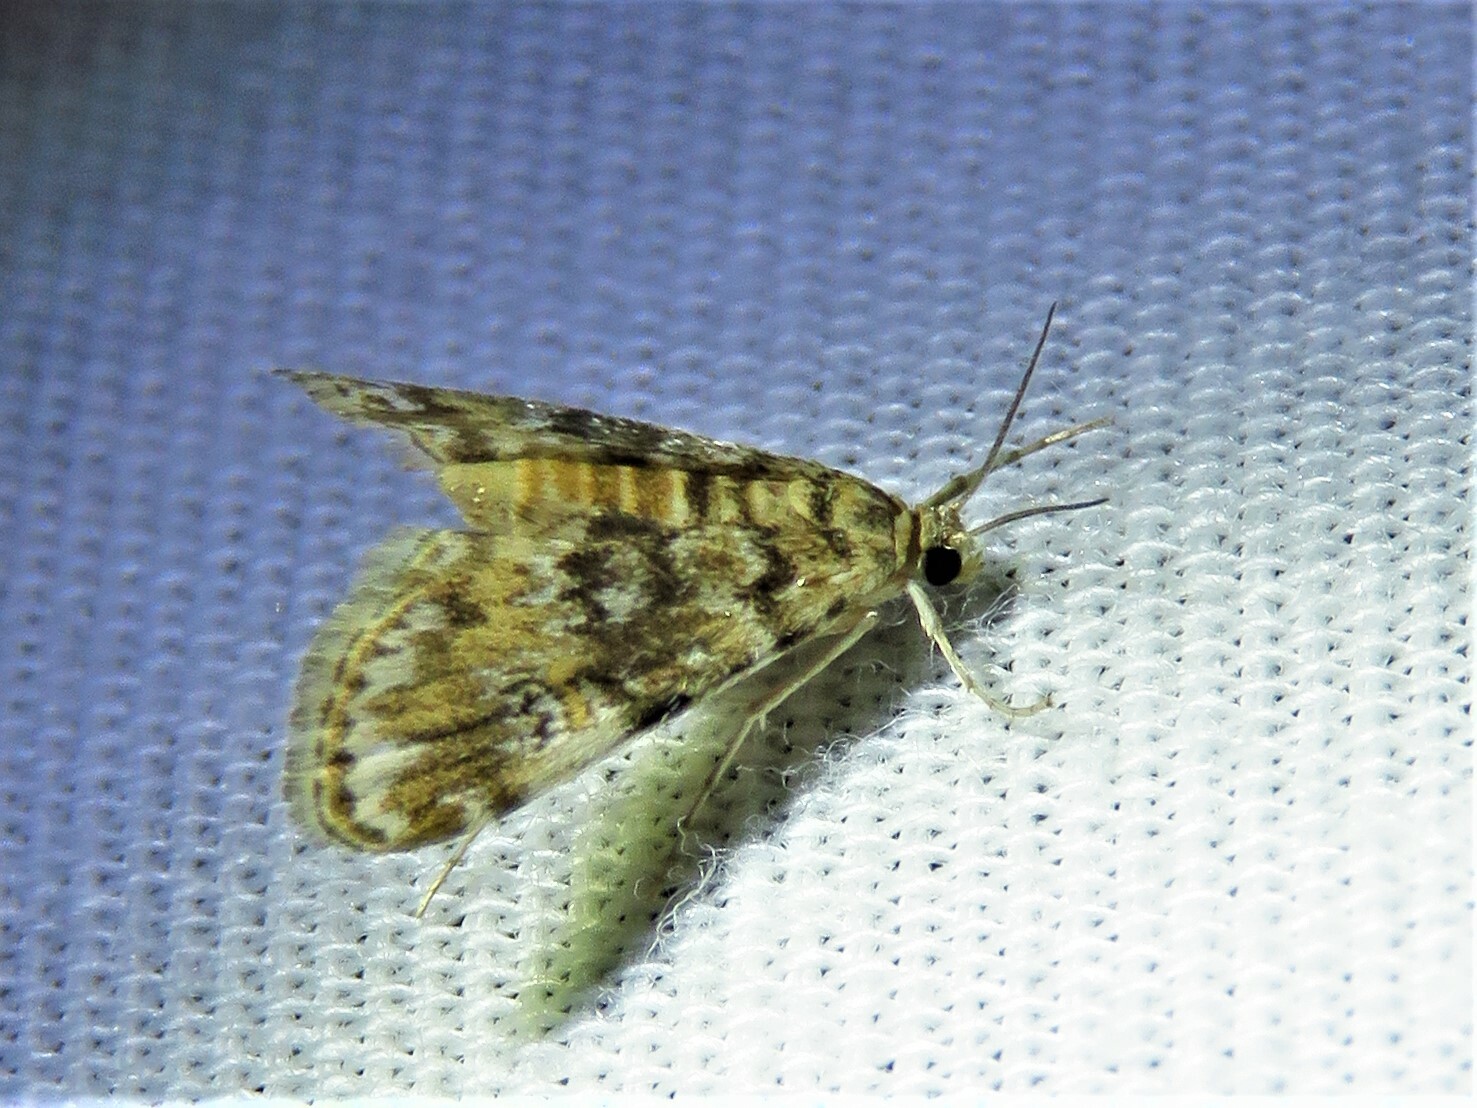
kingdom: Animalia
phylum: Arthropoda
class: Insecta
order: Lepidoptera
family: Crambidae
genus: Elophila
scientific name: Elophila obliteralis
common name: Waterlily leafcutter moth
